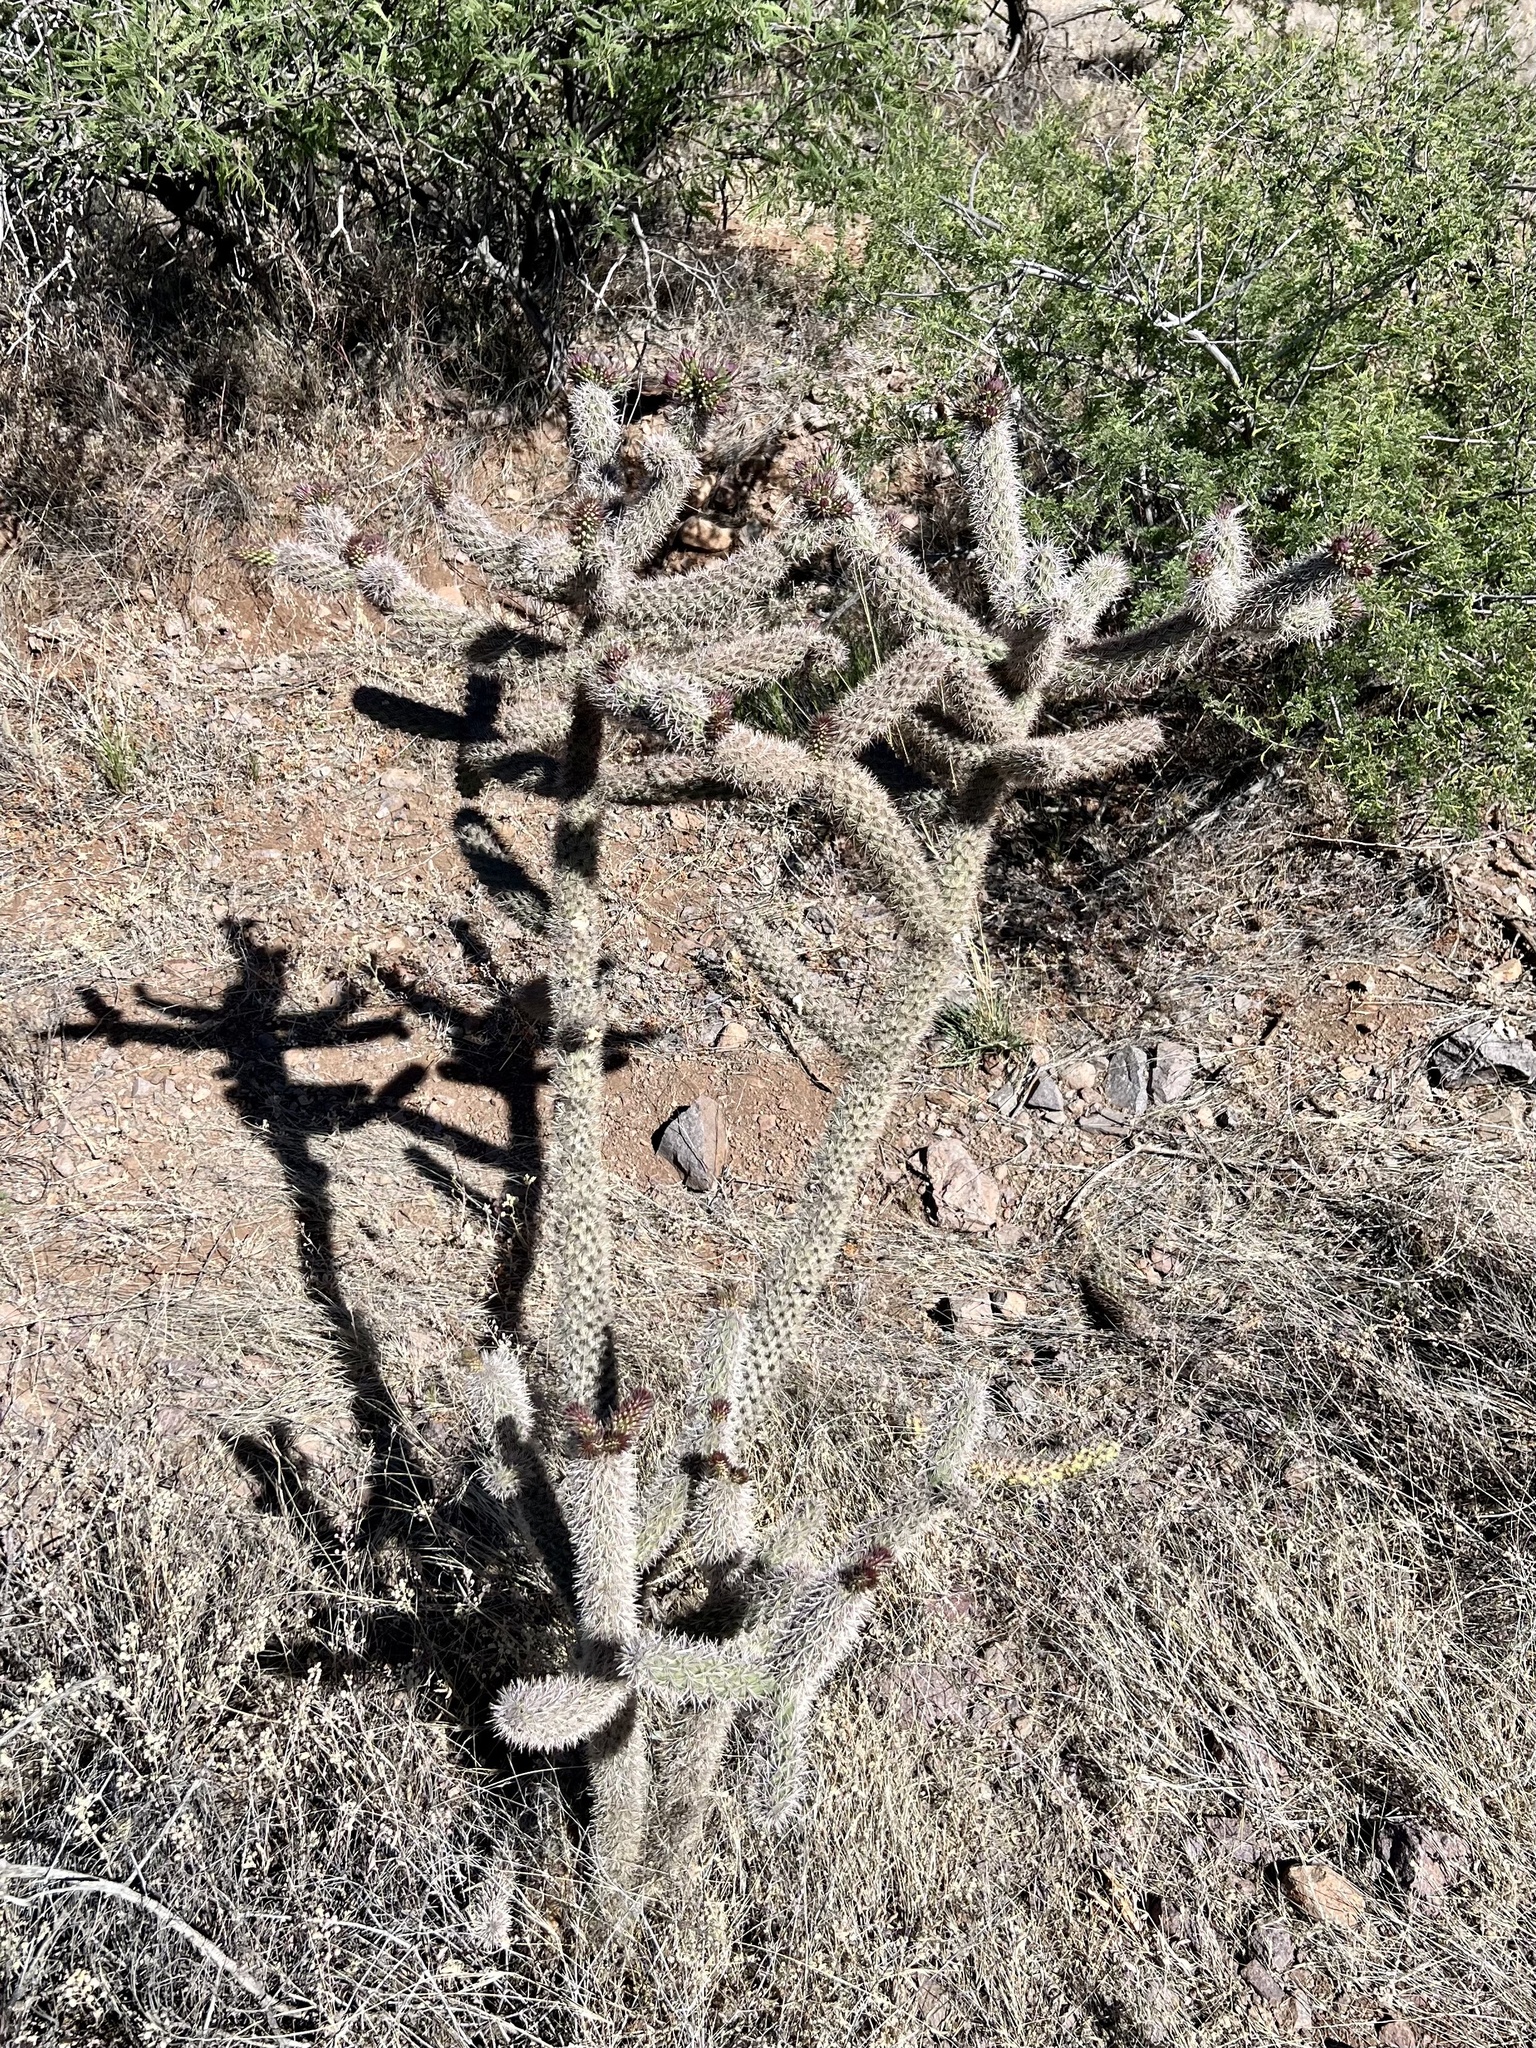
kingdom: Plantae
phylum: Tracheophyta
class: Magnoliopsida
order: Caryophyllales
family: Cactaceae
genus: Cylindropuntia
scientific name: Cylindropuntia imbricata
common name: Candelabrum cactus
